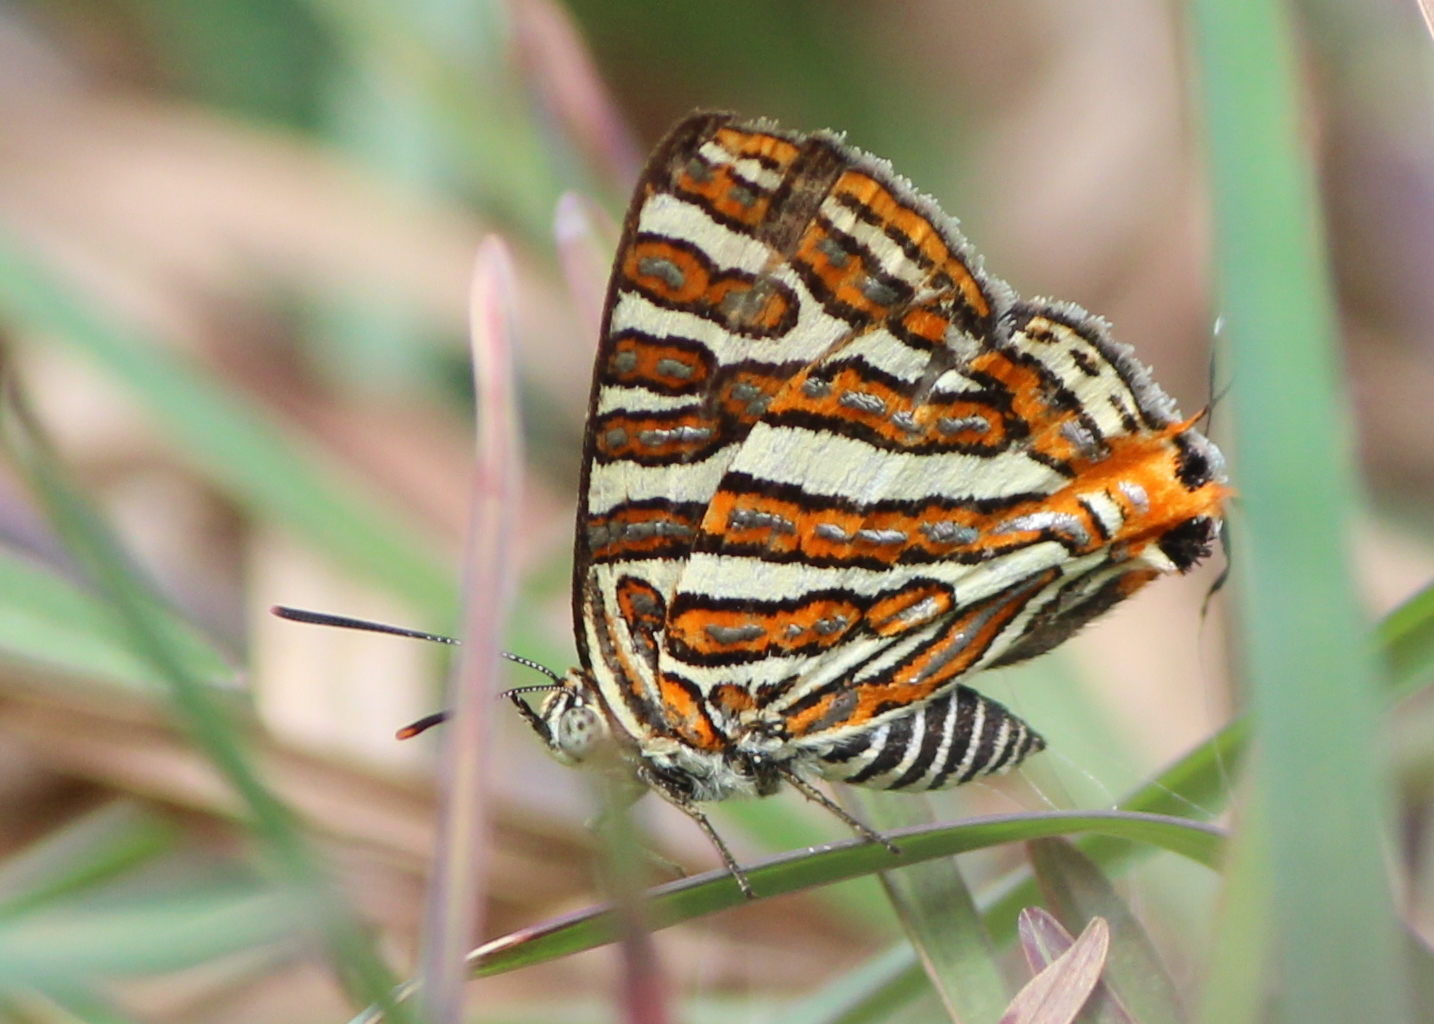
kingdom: Animalia
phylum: Arthropoda
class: Insecta
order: Lepidoptera
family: Lycaenidae
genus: Cigaritis
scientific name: Cigaritis vulcanus
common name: Common silverline
